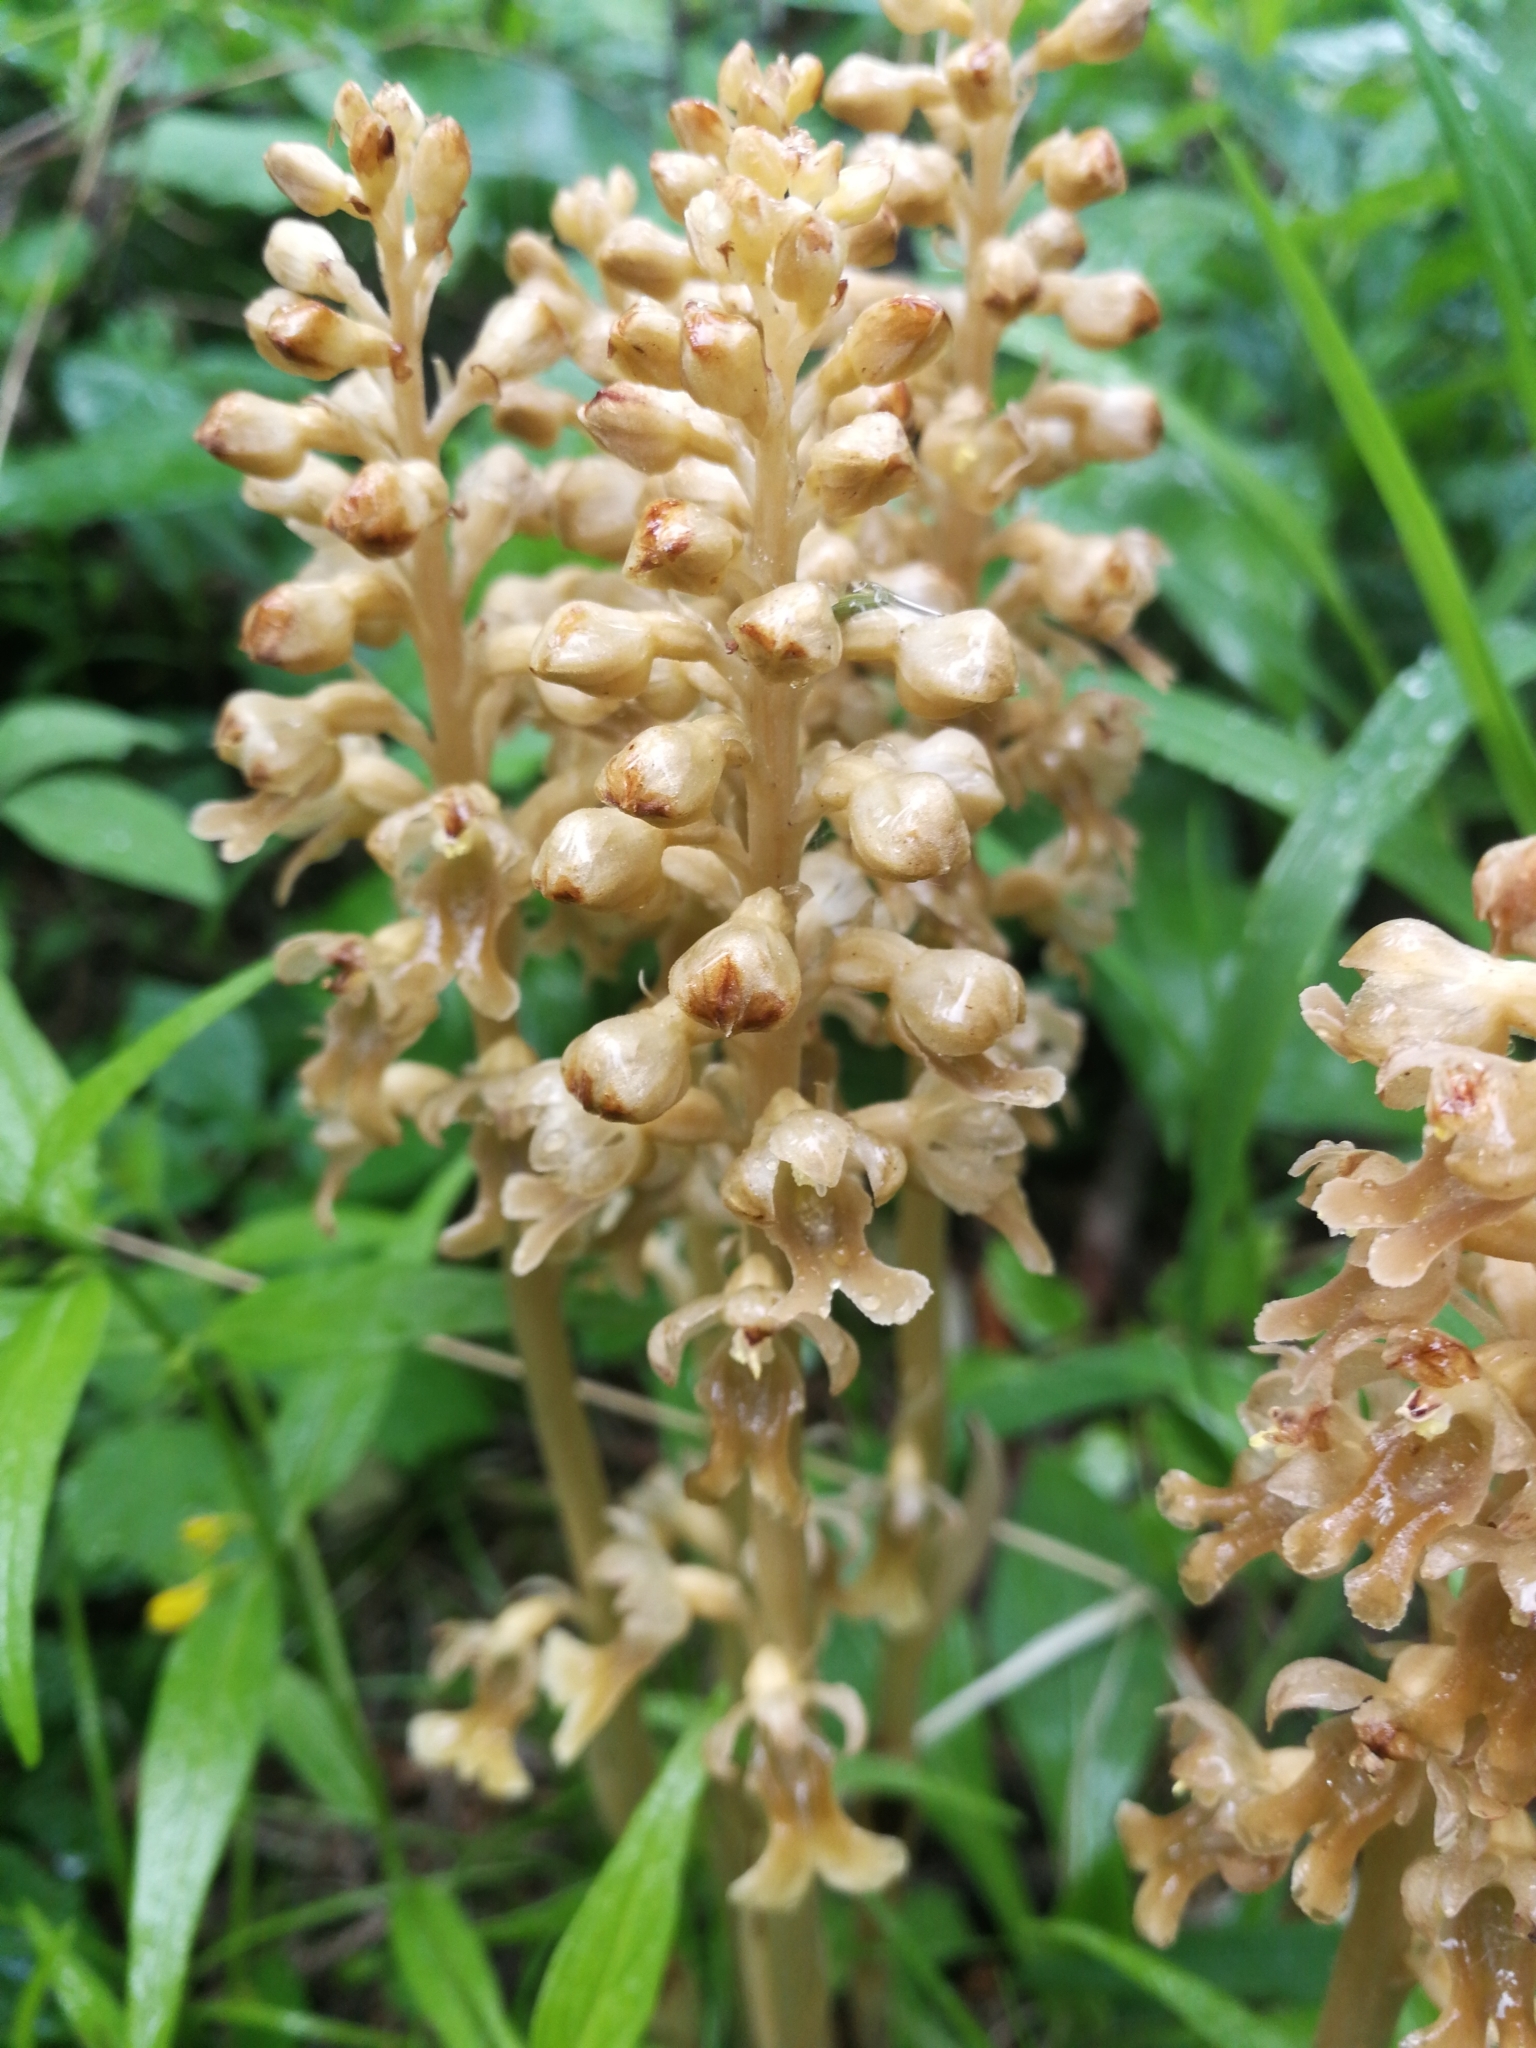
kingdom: Plantae
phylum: Tracheophyta
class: Liliopsida
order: Asparagales
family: Orchidaceae
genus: Neottia
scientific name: Neottia nidus-avis
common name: Bird's-nest orchid
